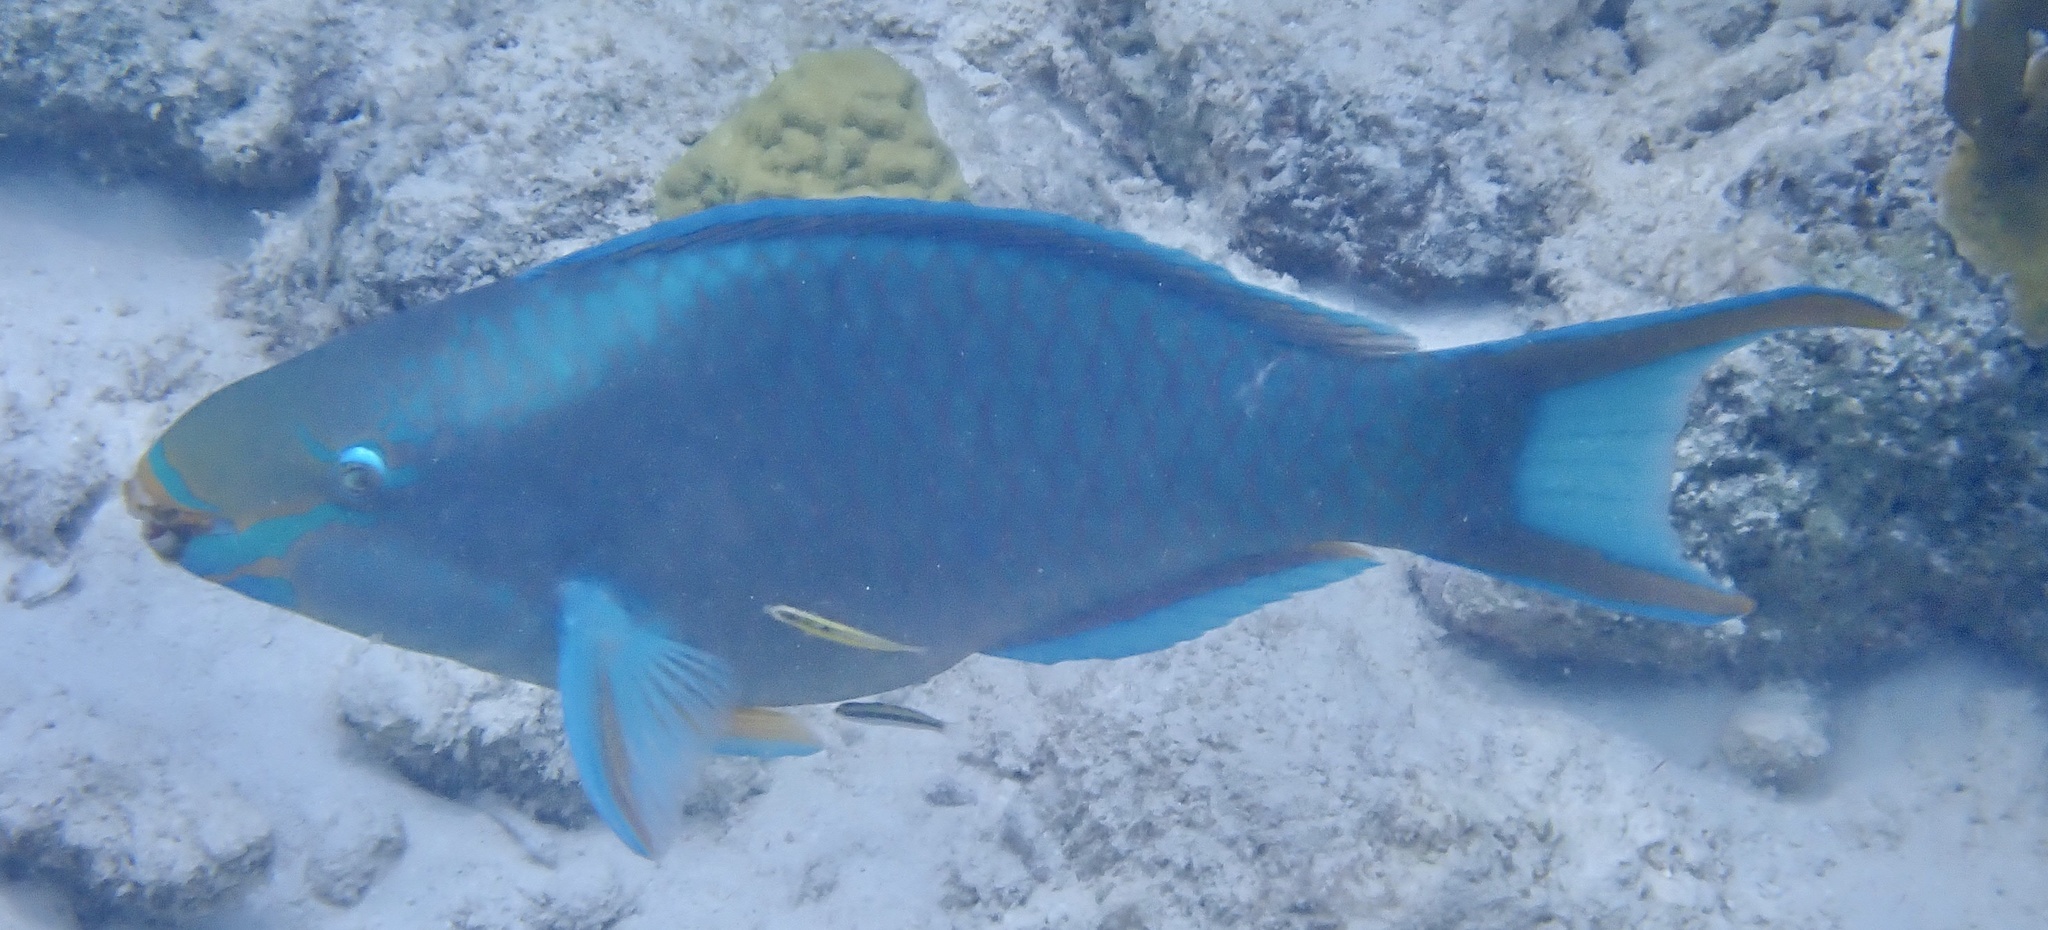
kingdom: Animalia
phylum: Chordata
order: Perciformes
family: Scaridae
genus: Scarus
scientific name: Scarus vetula
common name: Queen parrotfish
